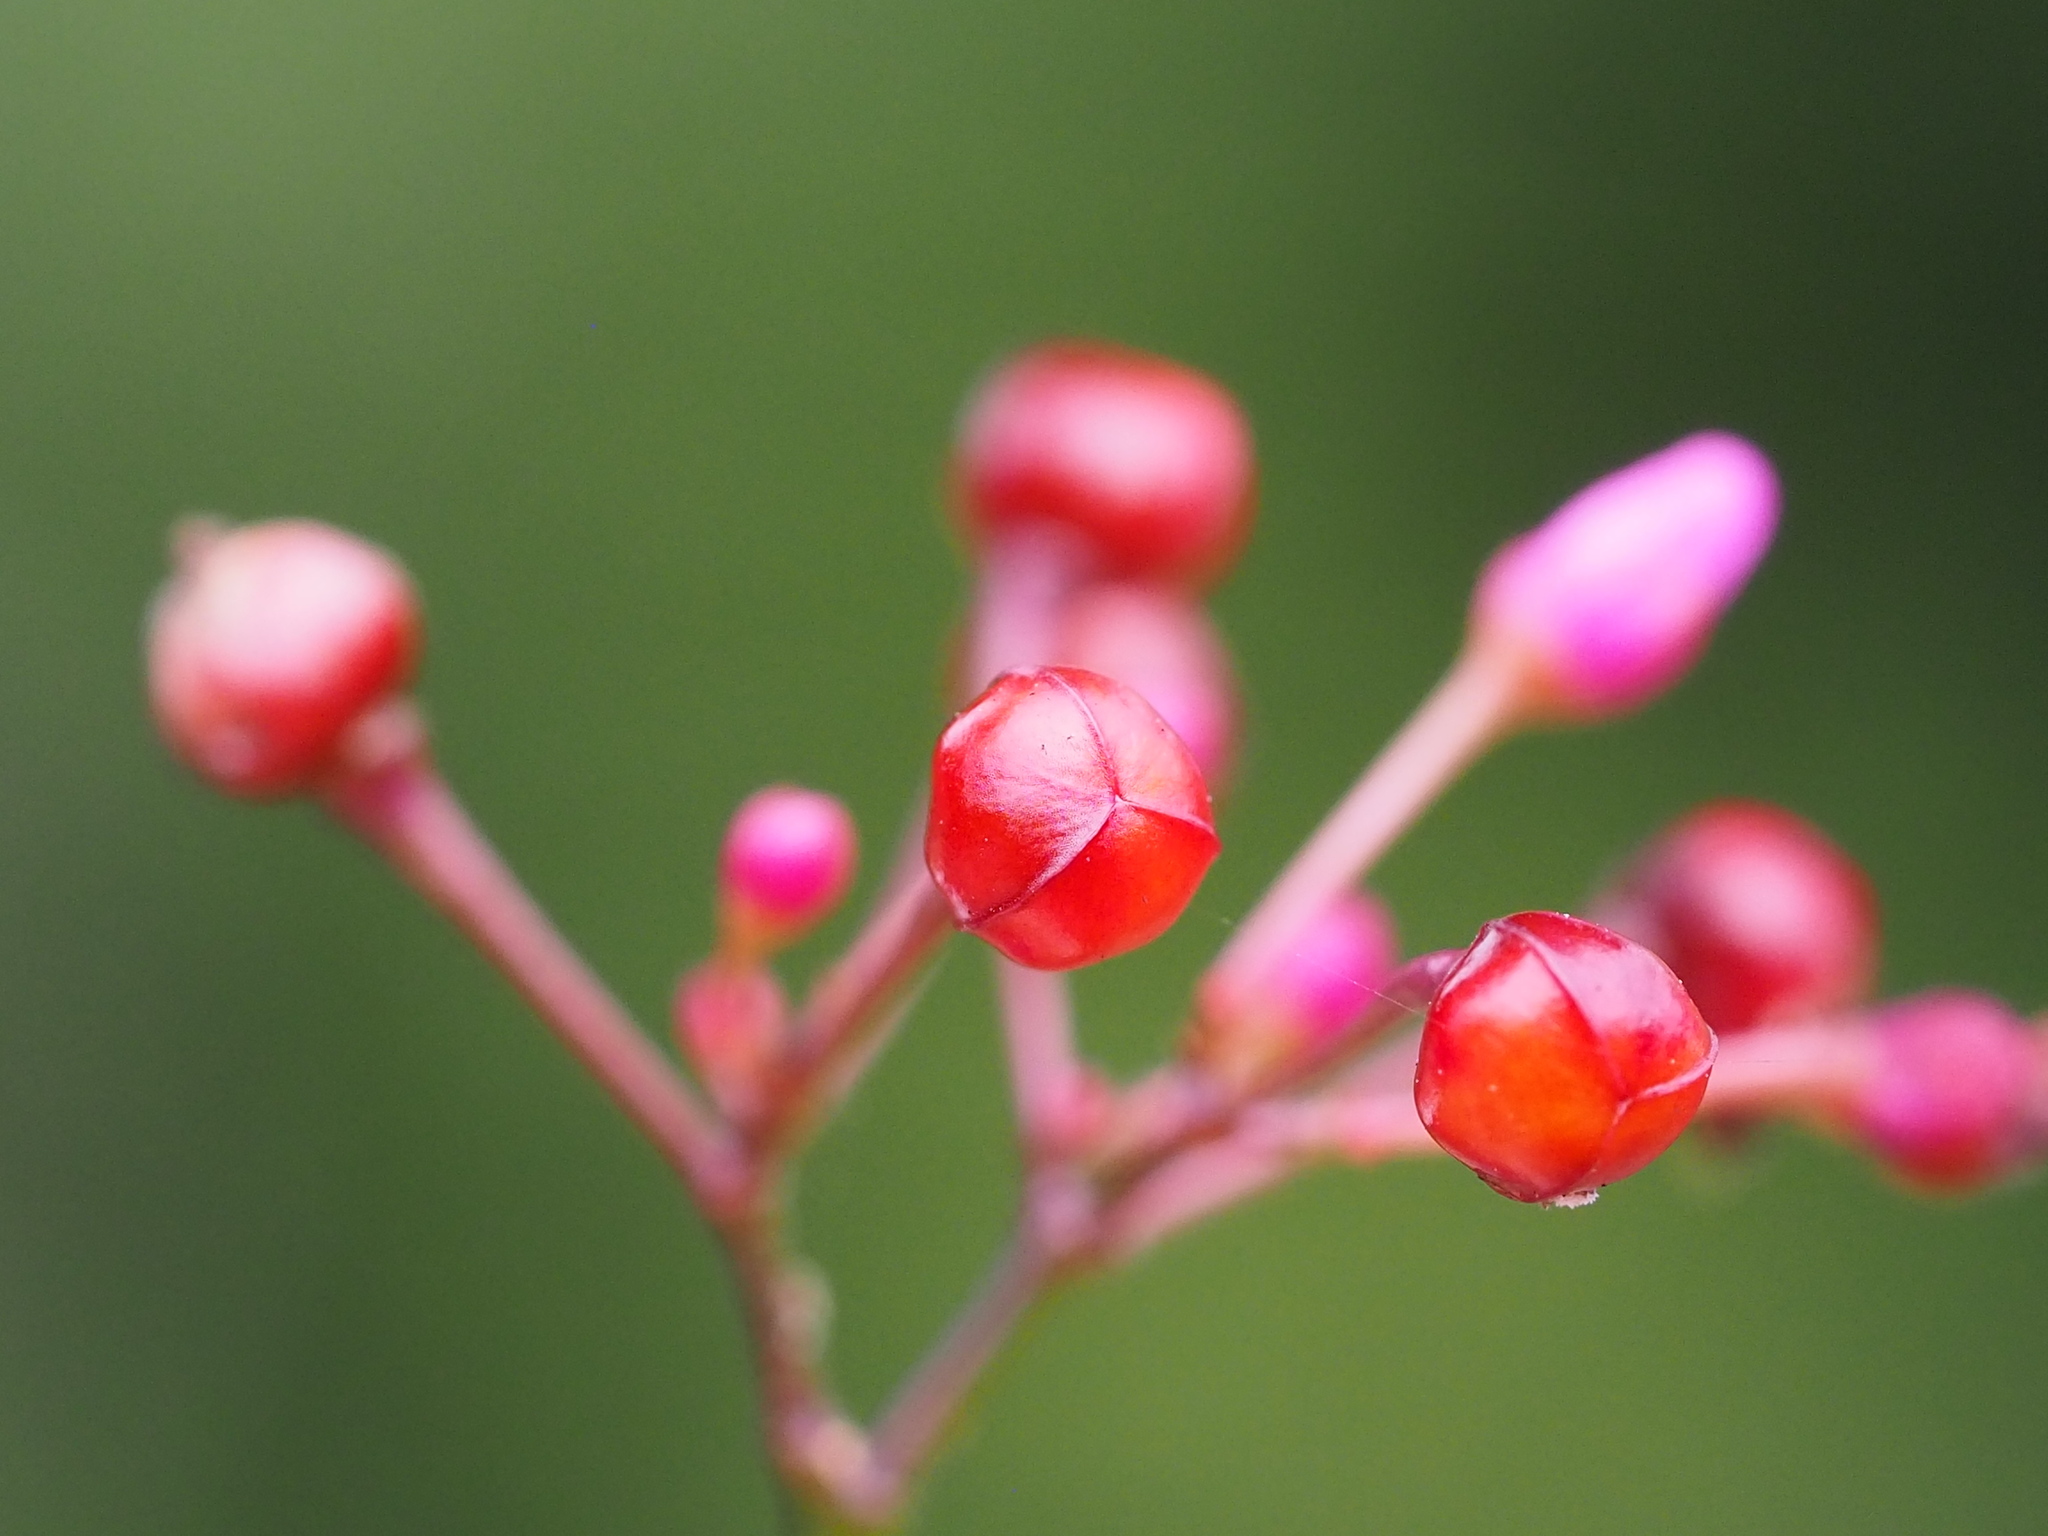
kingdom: Plantae
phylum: Tracheophyta
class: Magnoliopsida
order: Caryophyllales
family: Talinaceae
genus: Talinum
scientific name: Talinum paniculatum
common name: Jewels of opar
